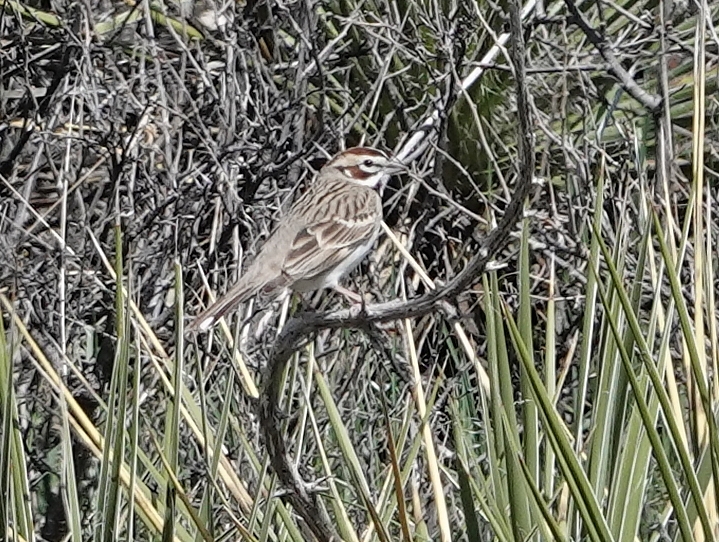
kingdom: Animalia
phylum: Chordata
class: Aves
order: Passeriformes
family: Passerellidae
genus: Chondestes
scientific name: Chondestes grammacus
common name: Lark sparrow
